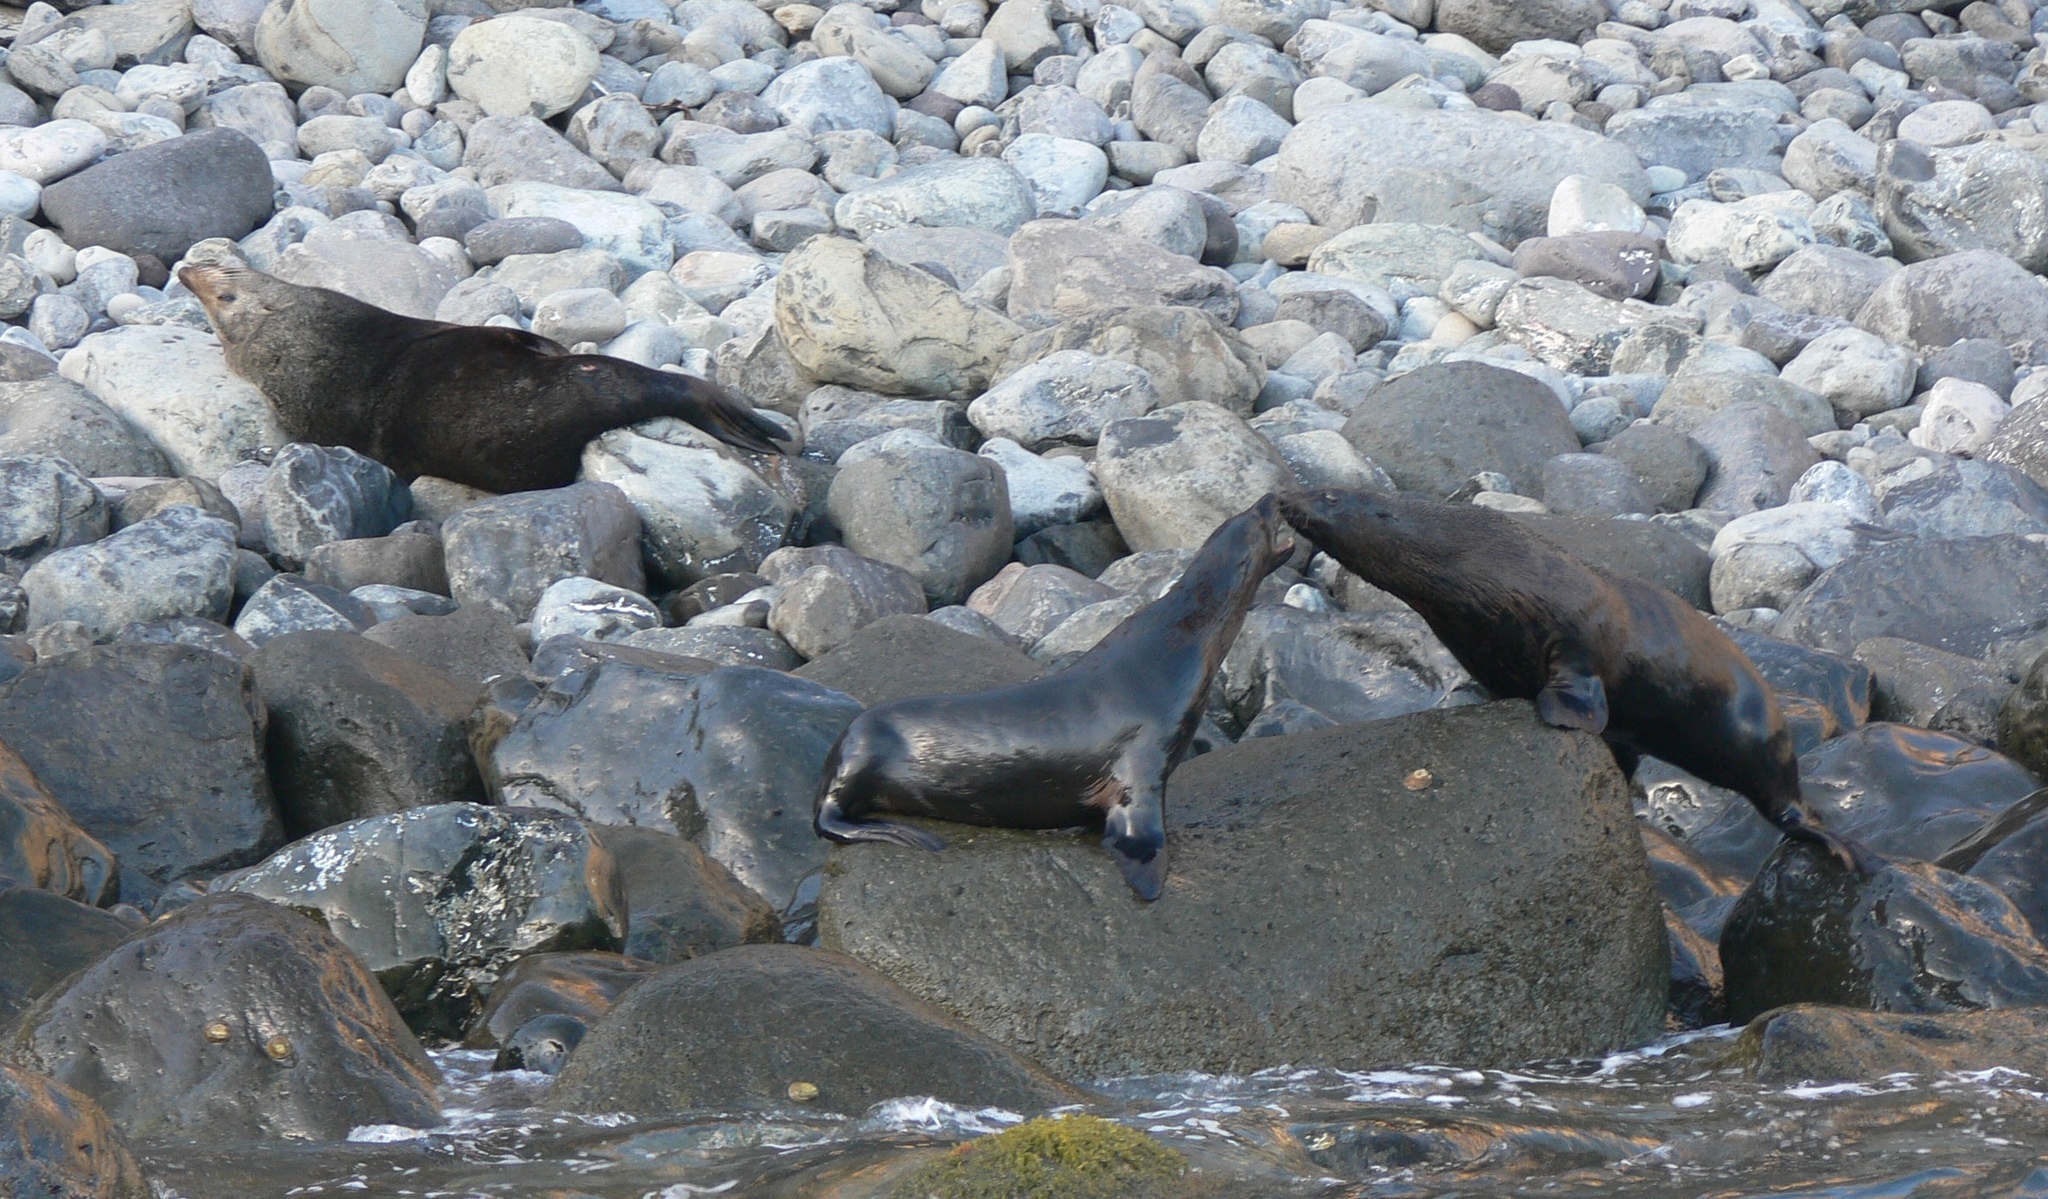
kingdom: Animalia
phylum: Chordata
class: Mammalia
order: Carnivora
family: Otariidae
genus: Arctocephalus
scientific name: Arctocephalus philippii
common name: Juan fernández fur seal
